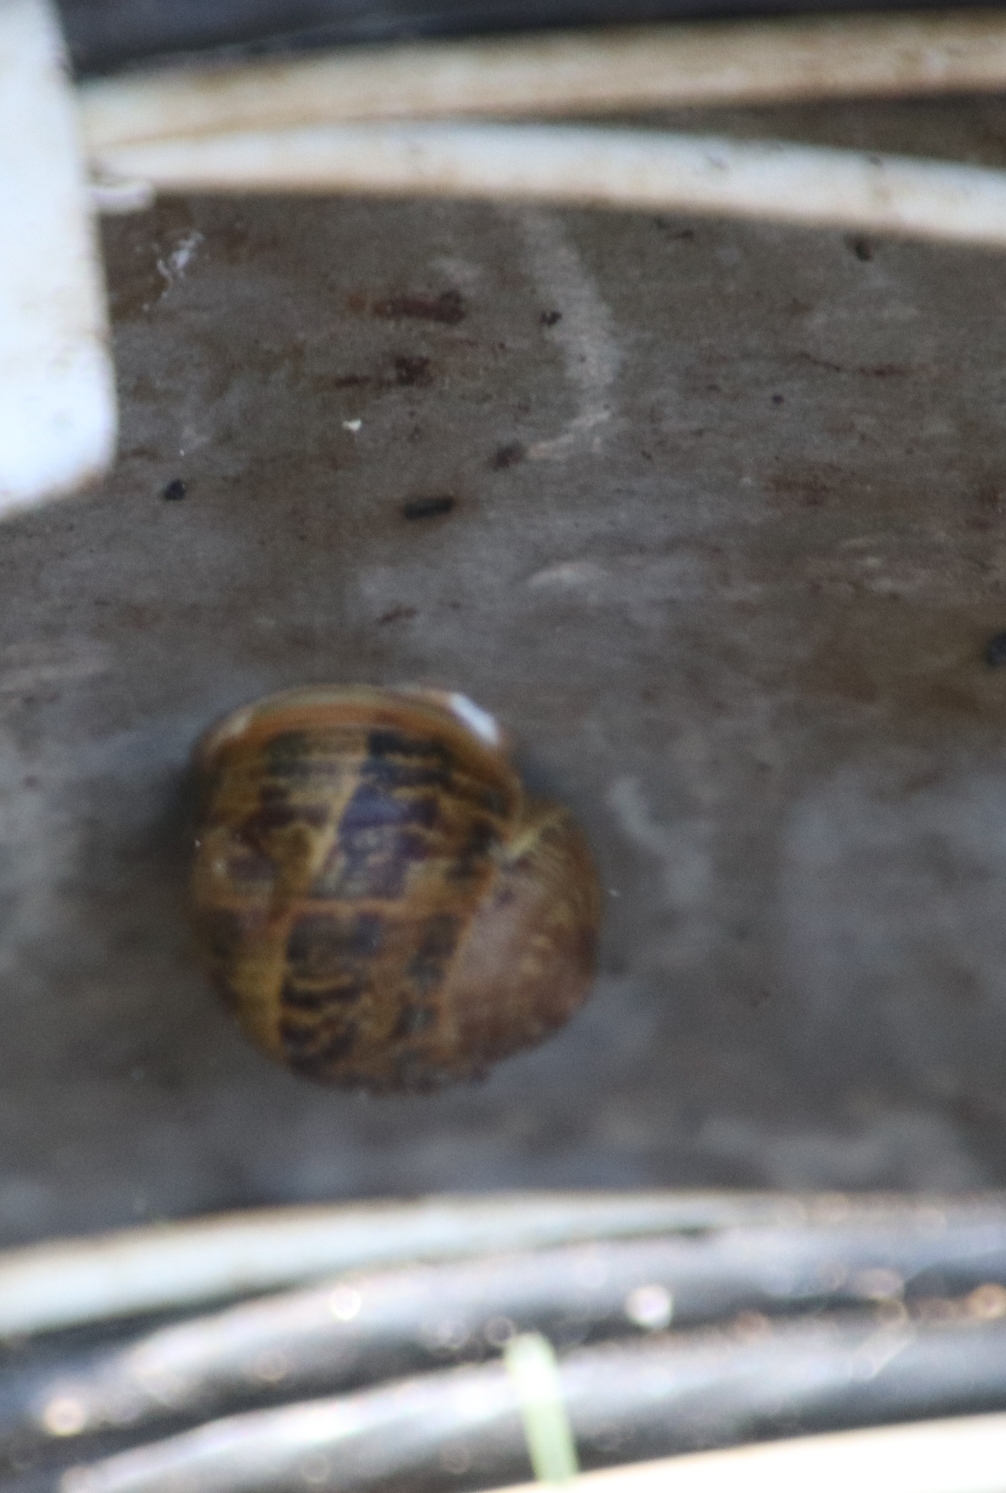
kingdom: Animalia
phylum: Mollusca
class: Gastropoda
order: Stylommatophora
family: Helicidae
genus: Cornu
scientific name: Cornu aspersum
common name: Brown garden snail
